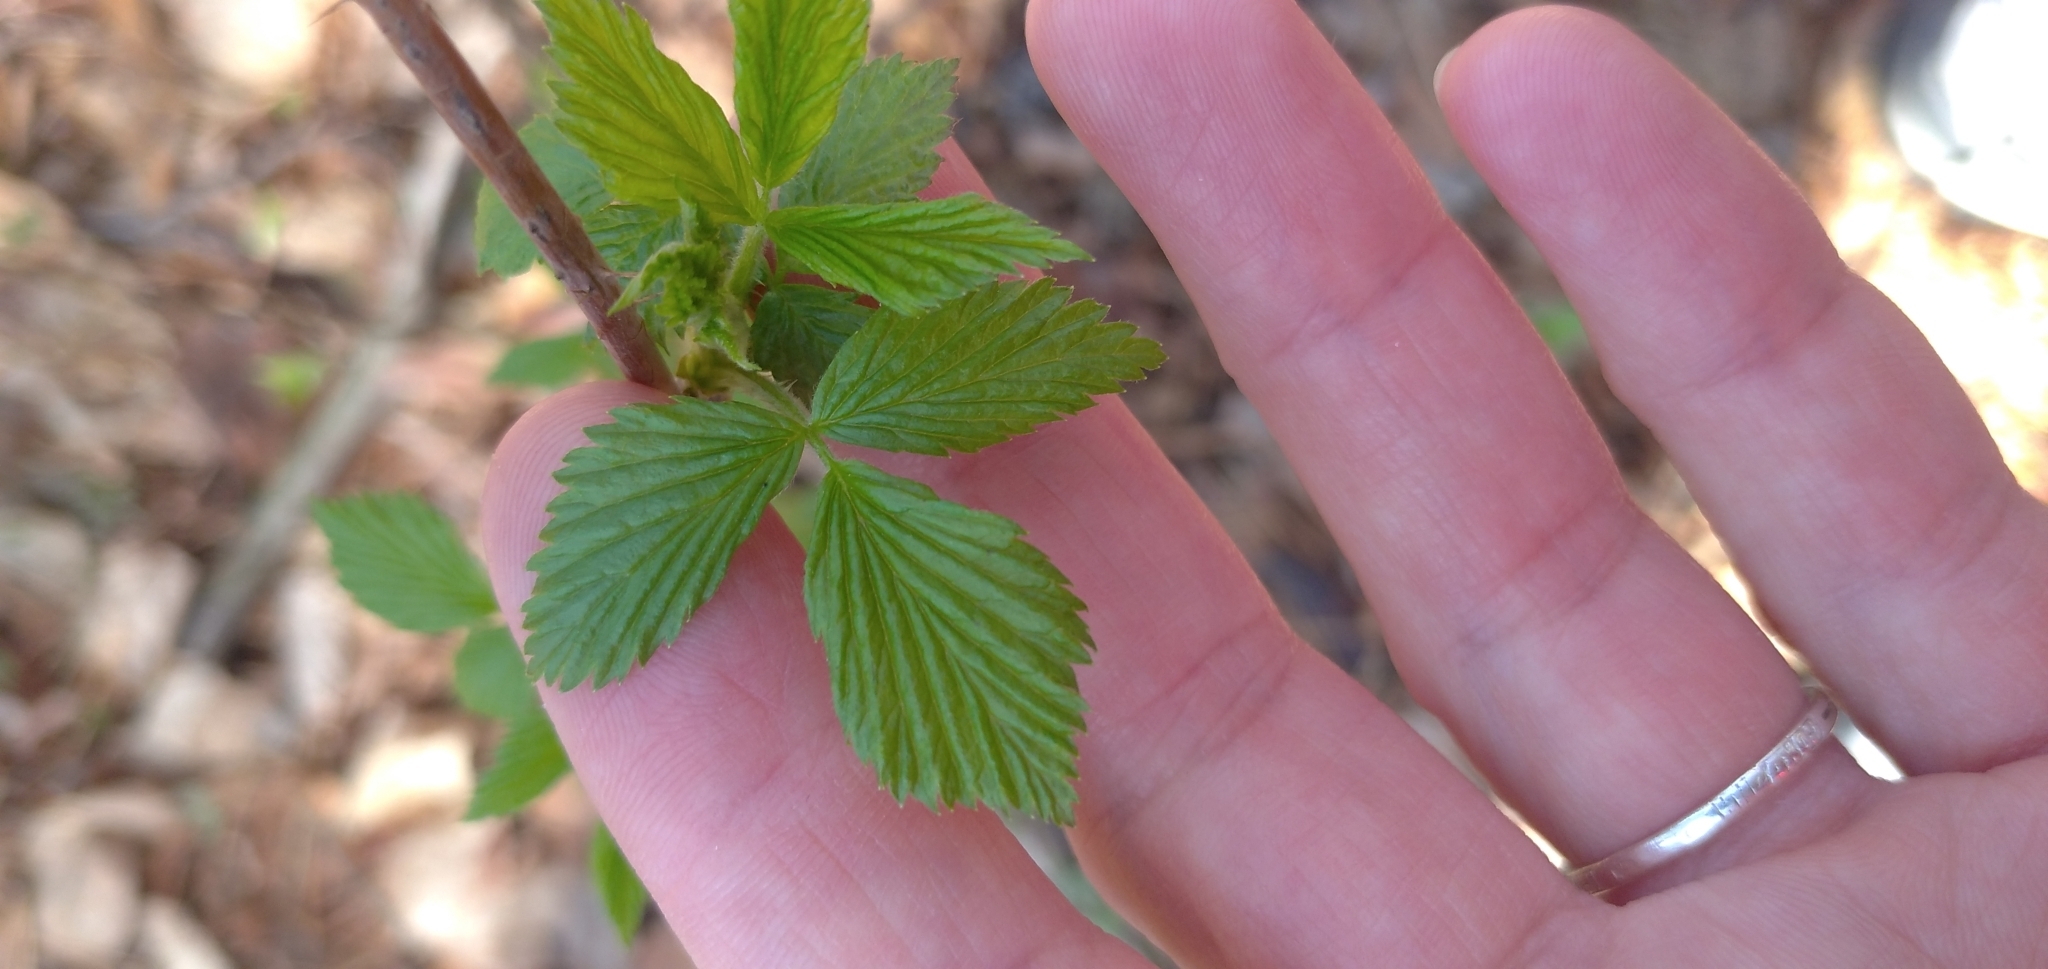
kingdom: Plantae
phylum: Tracheophyta
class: Magnoliopsida
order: Rosales
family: Rosaceae
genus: Rubus
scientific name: Rubus idaeus
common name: Raspberry
